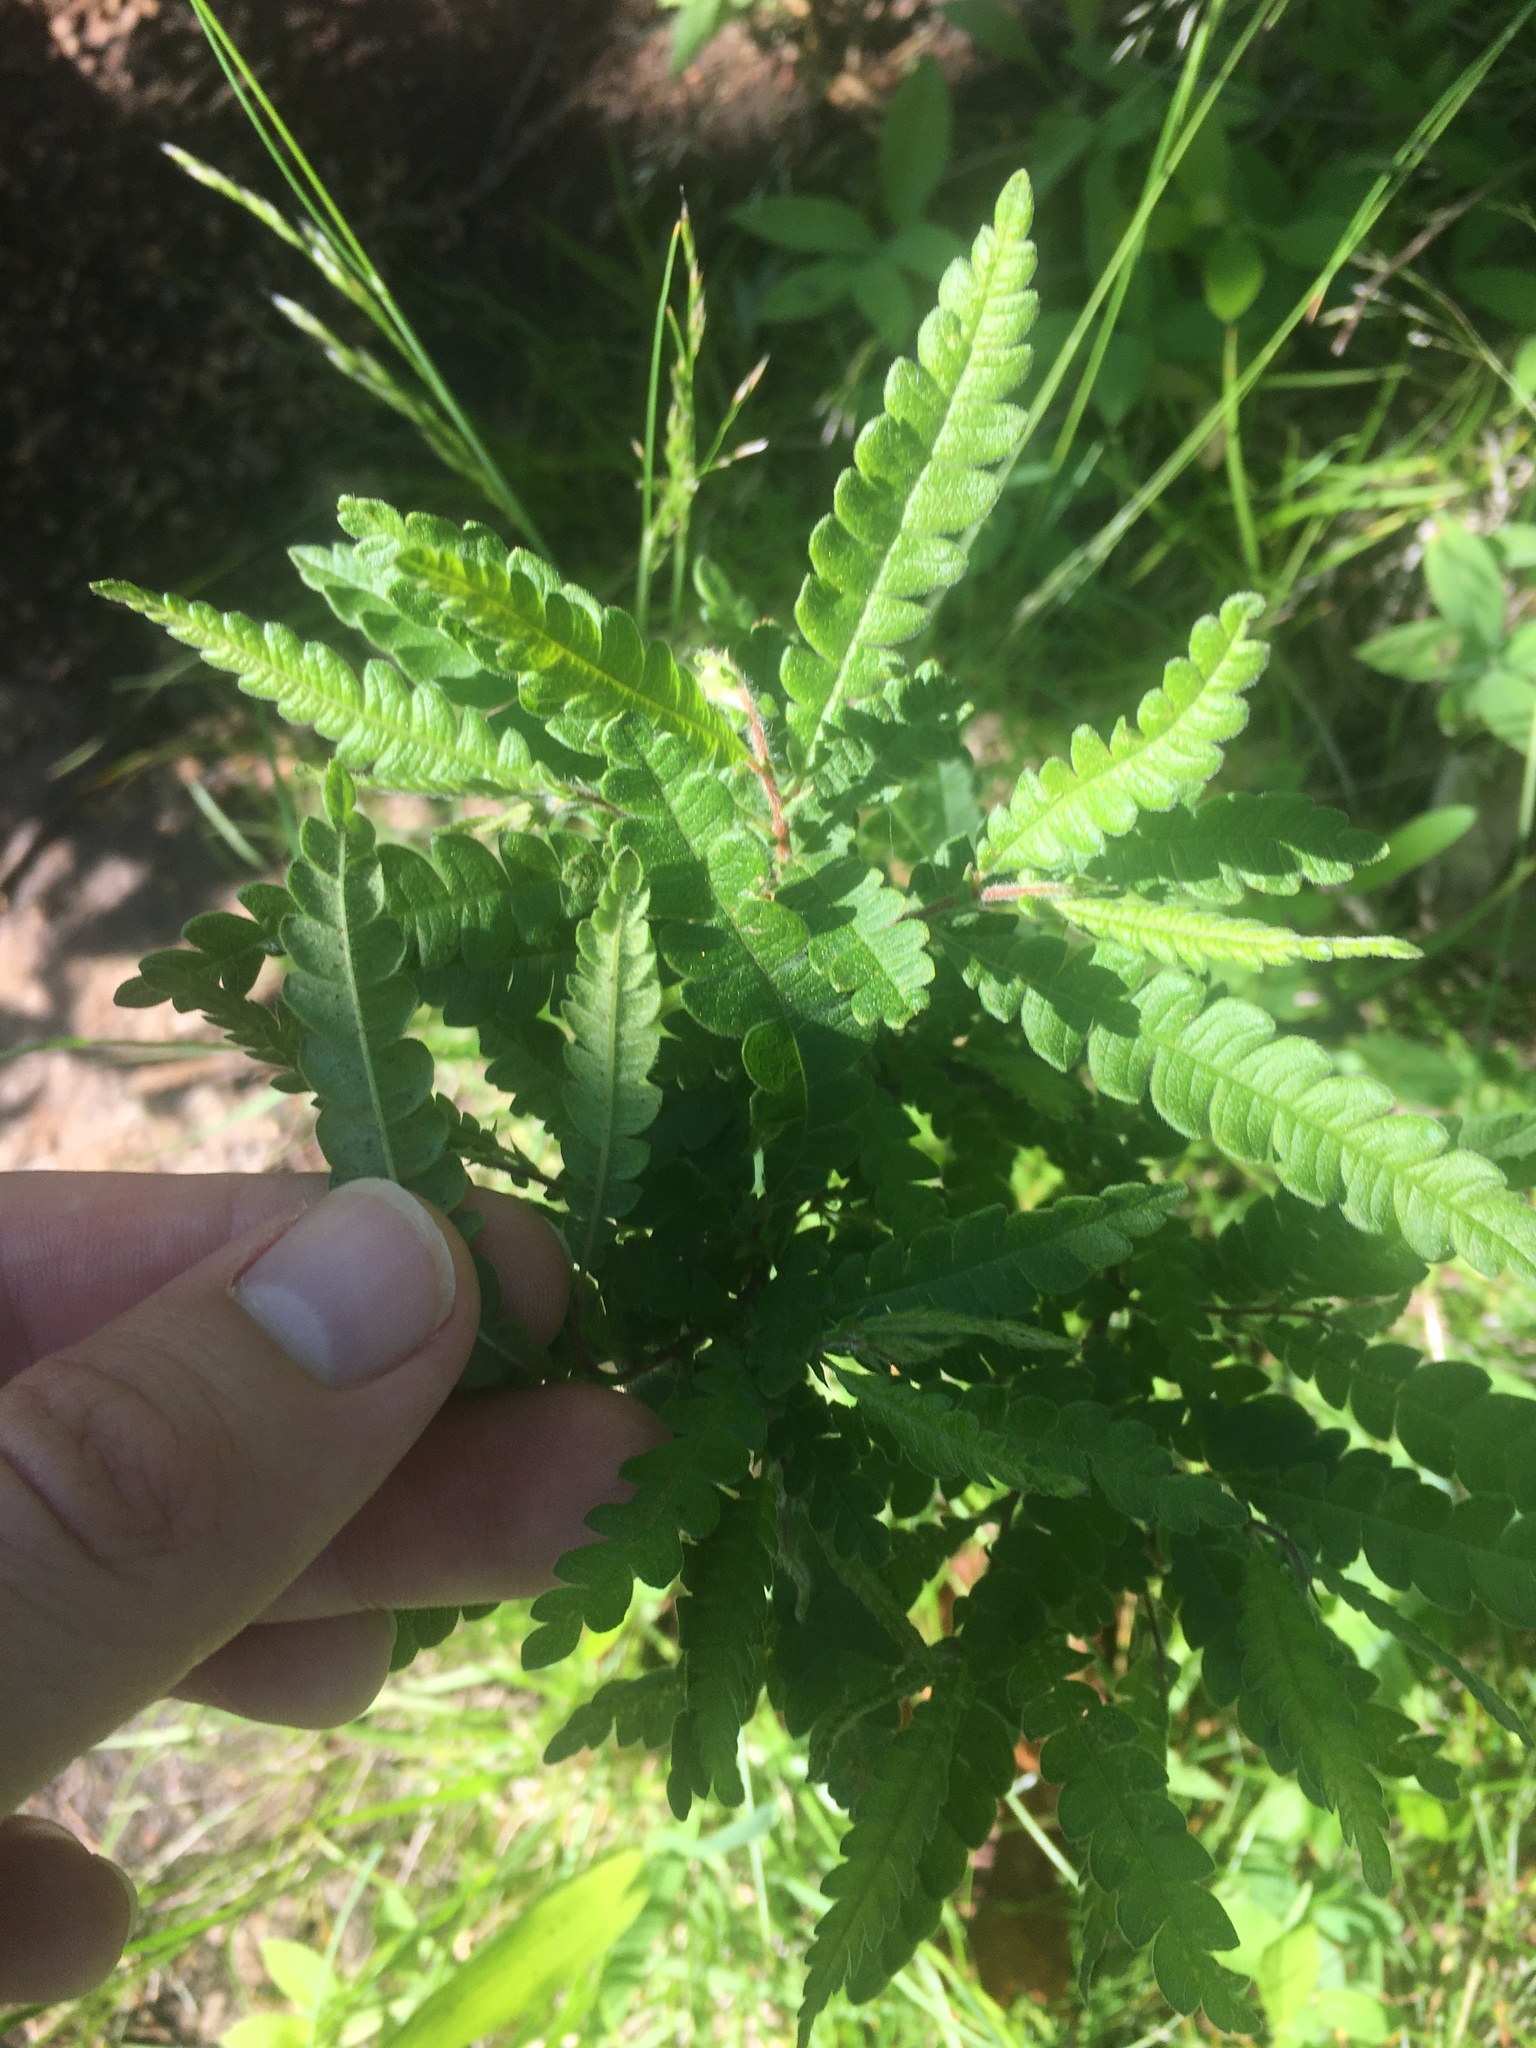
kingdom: Plantae
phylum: Tracheophyta
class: Magnoliopsida
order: Fagales
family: Myricaceae
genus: Comptonia
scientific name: Comptonia peregrina
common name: Sweet-fern
